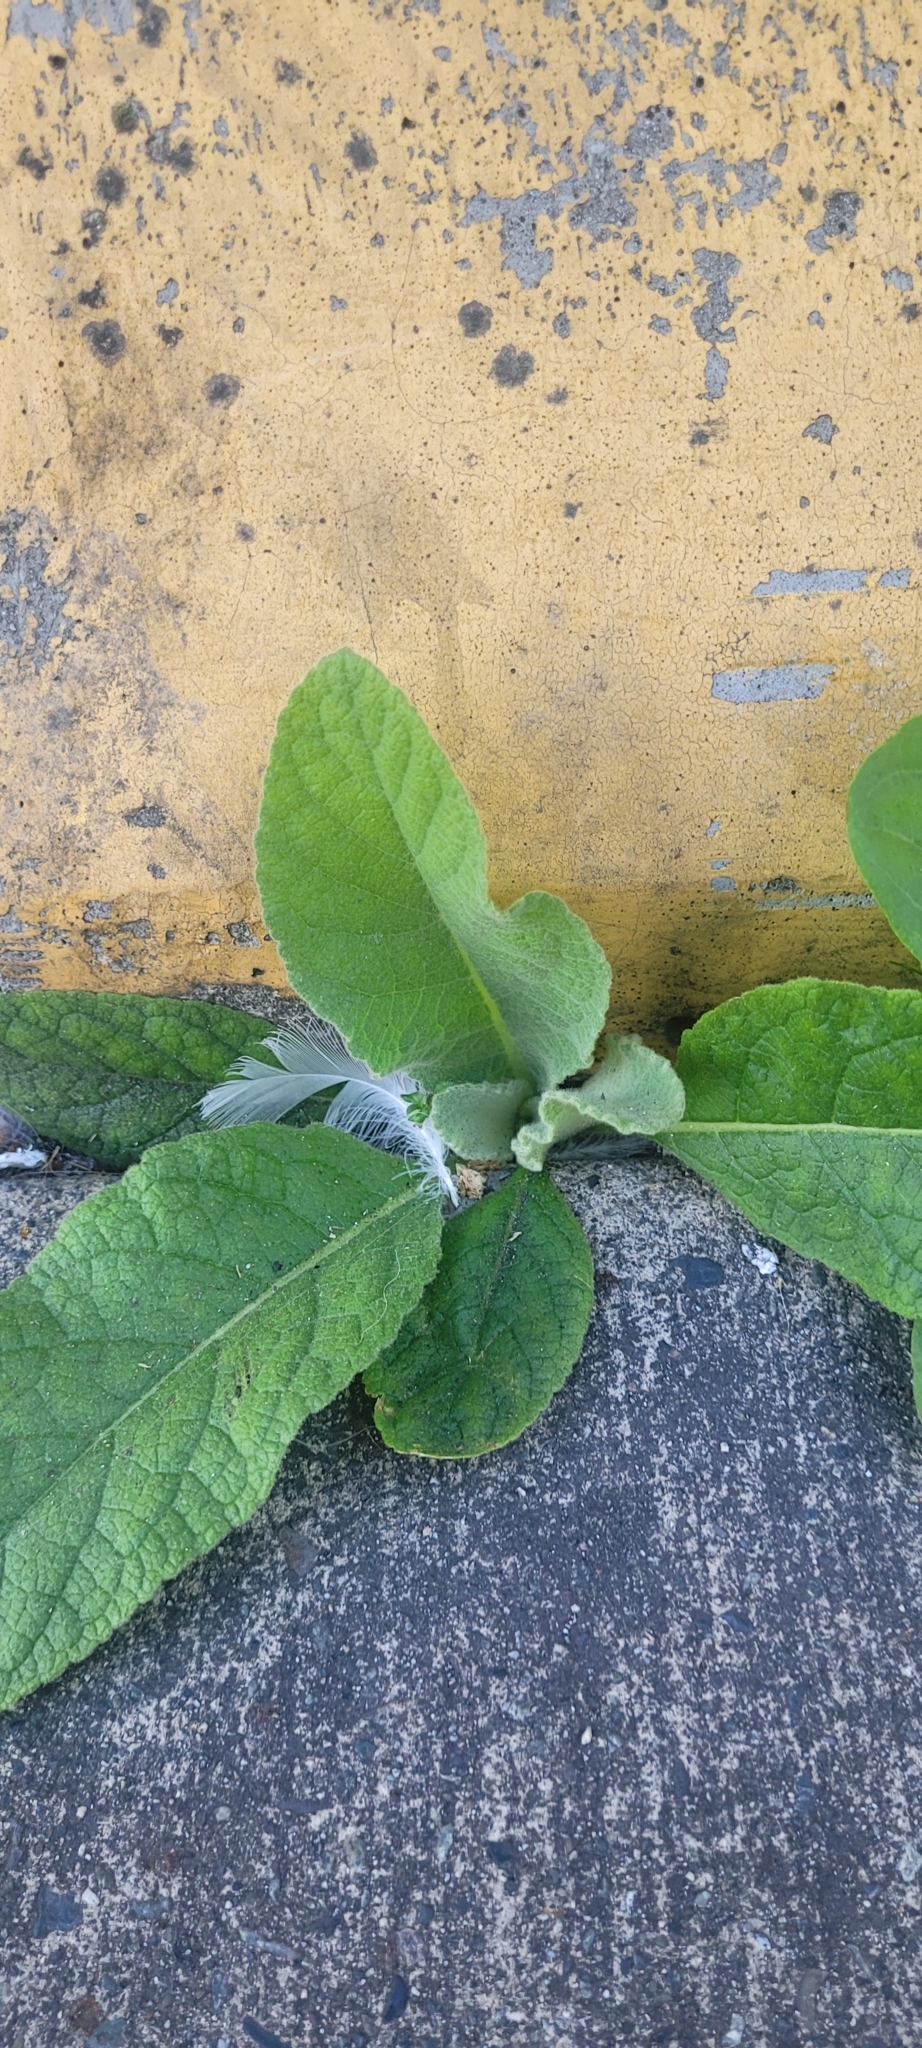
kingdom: Plantae
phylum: Tracheophyta
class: Magnoliopsida
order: Lamiales
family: Scrophulariaceae
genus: Verbascum
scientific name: Verbascum thapsus
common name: Common mullein
